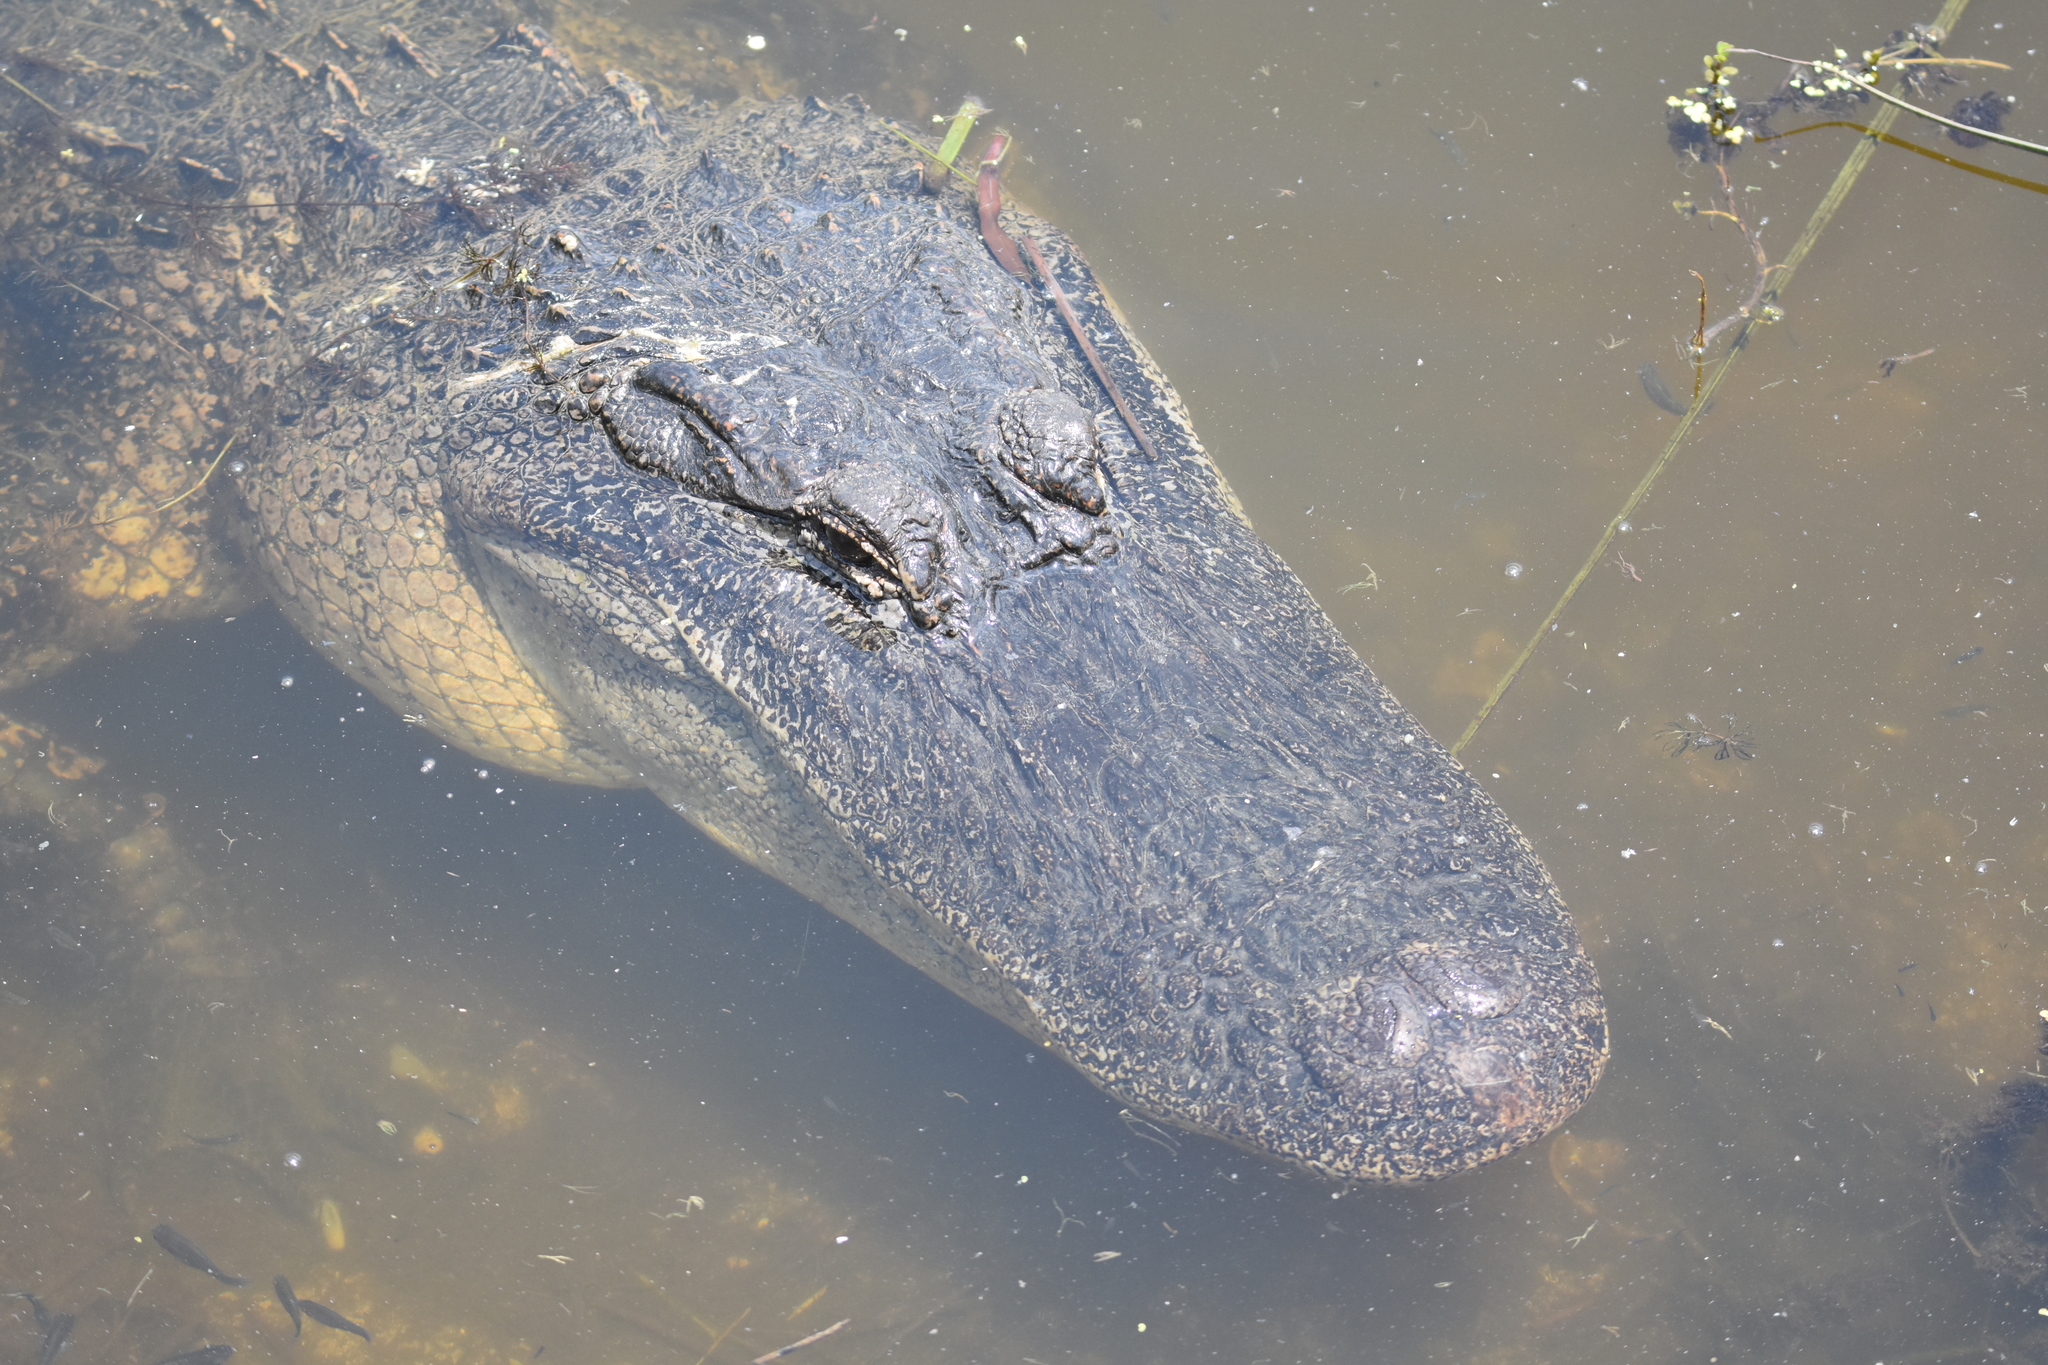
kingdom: Animalia
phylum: Chordata
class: Crocodylia
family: Alligatoridae
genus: Alligator
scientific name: Alligator mississippiensis
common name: American alligator
